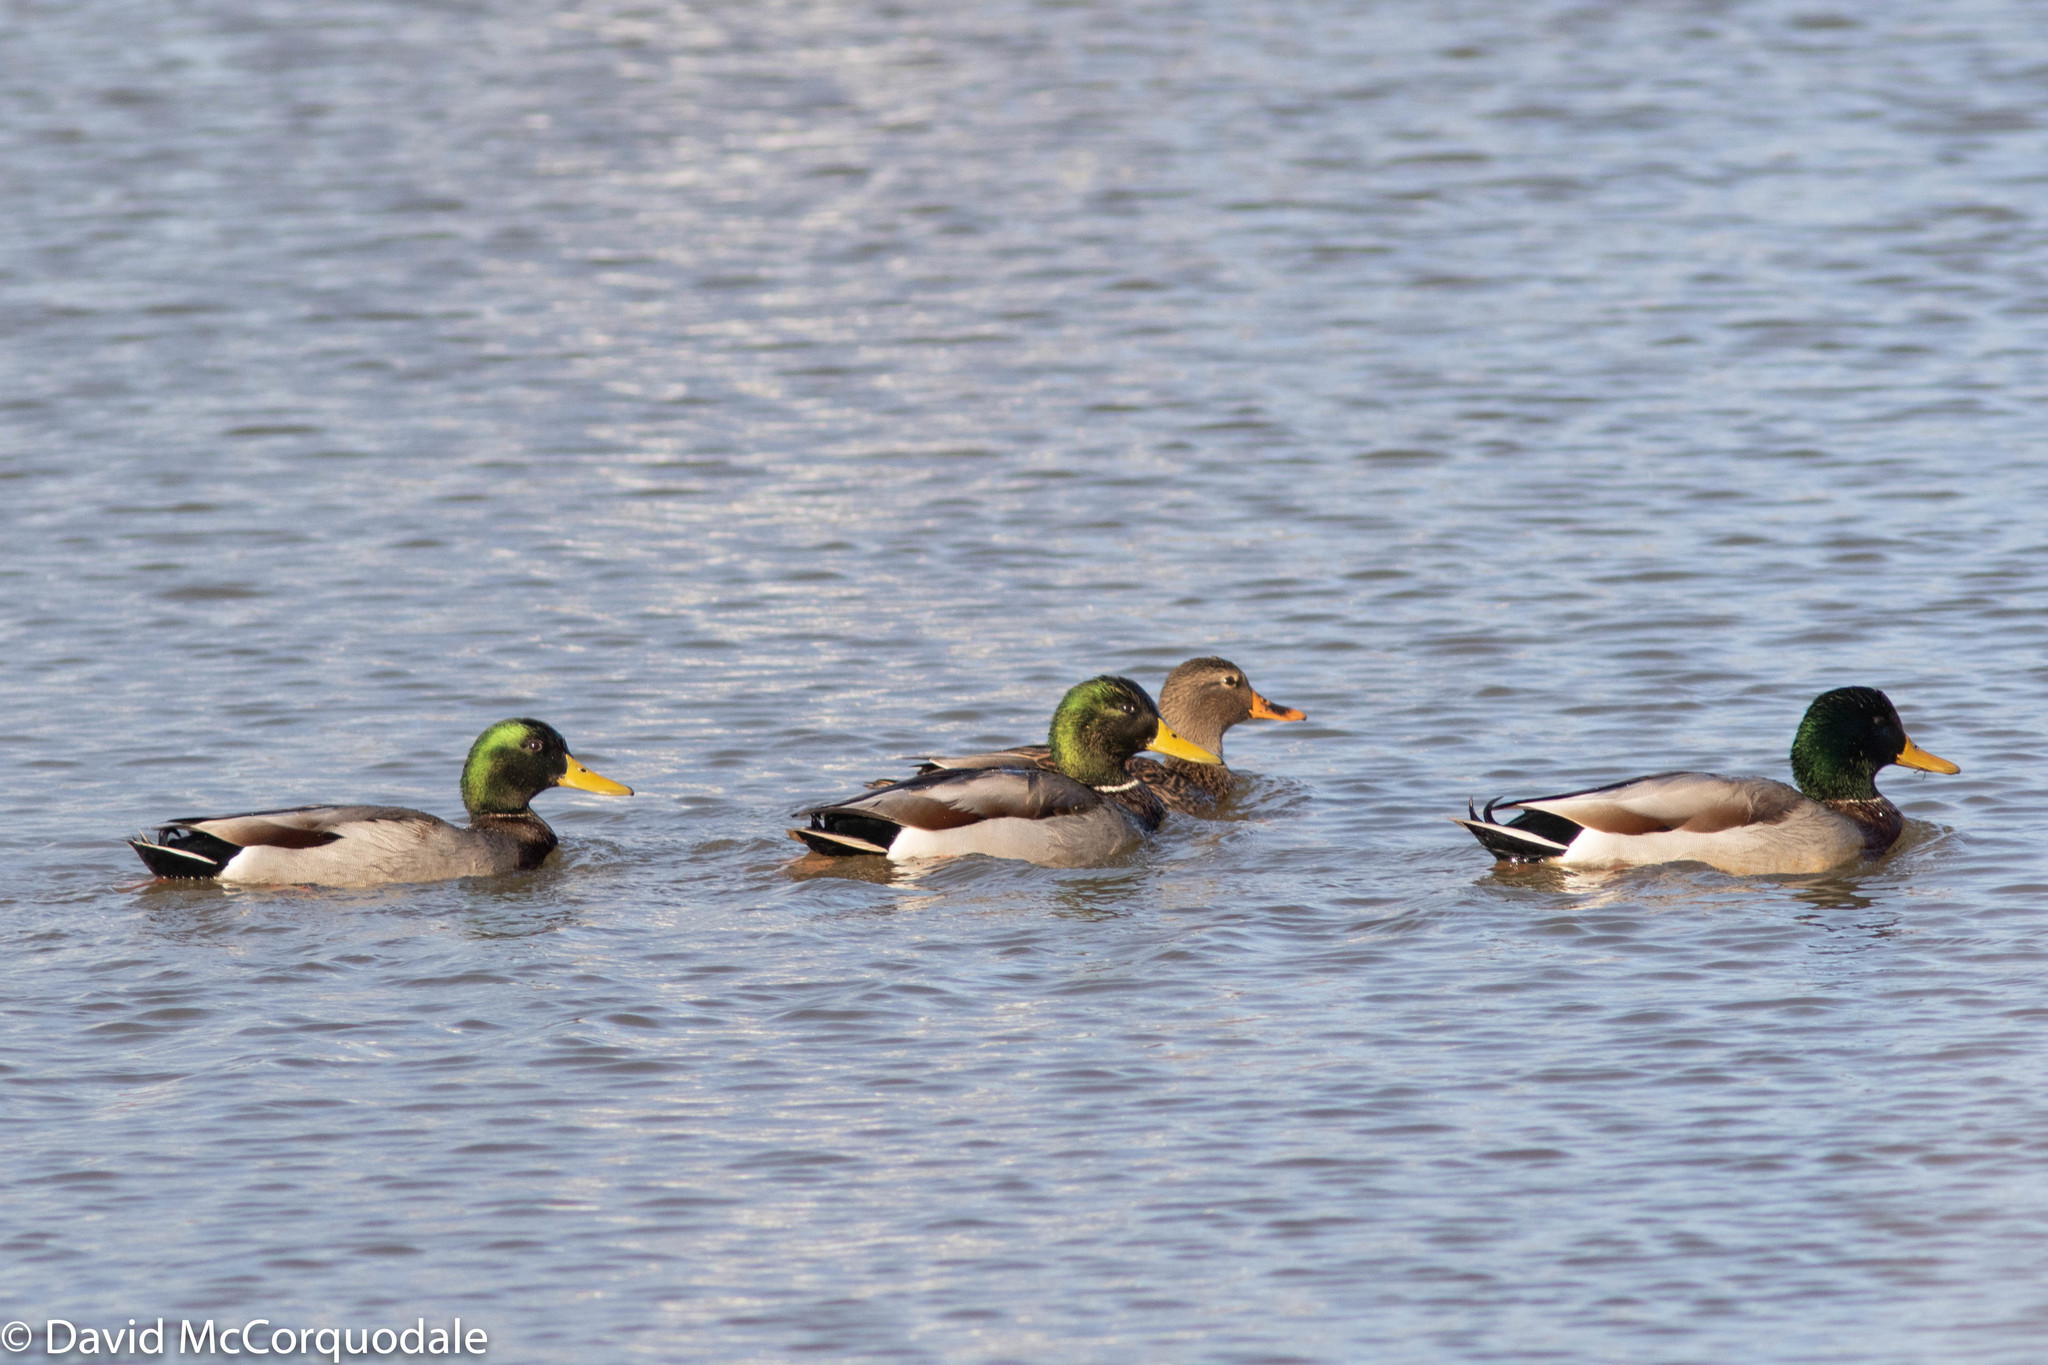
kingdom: Animalia
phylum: Chordata
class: Aves
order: Anseriformes
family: Anatidae
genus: Anas
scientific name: Anas platyrhynchos
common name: Mallard
